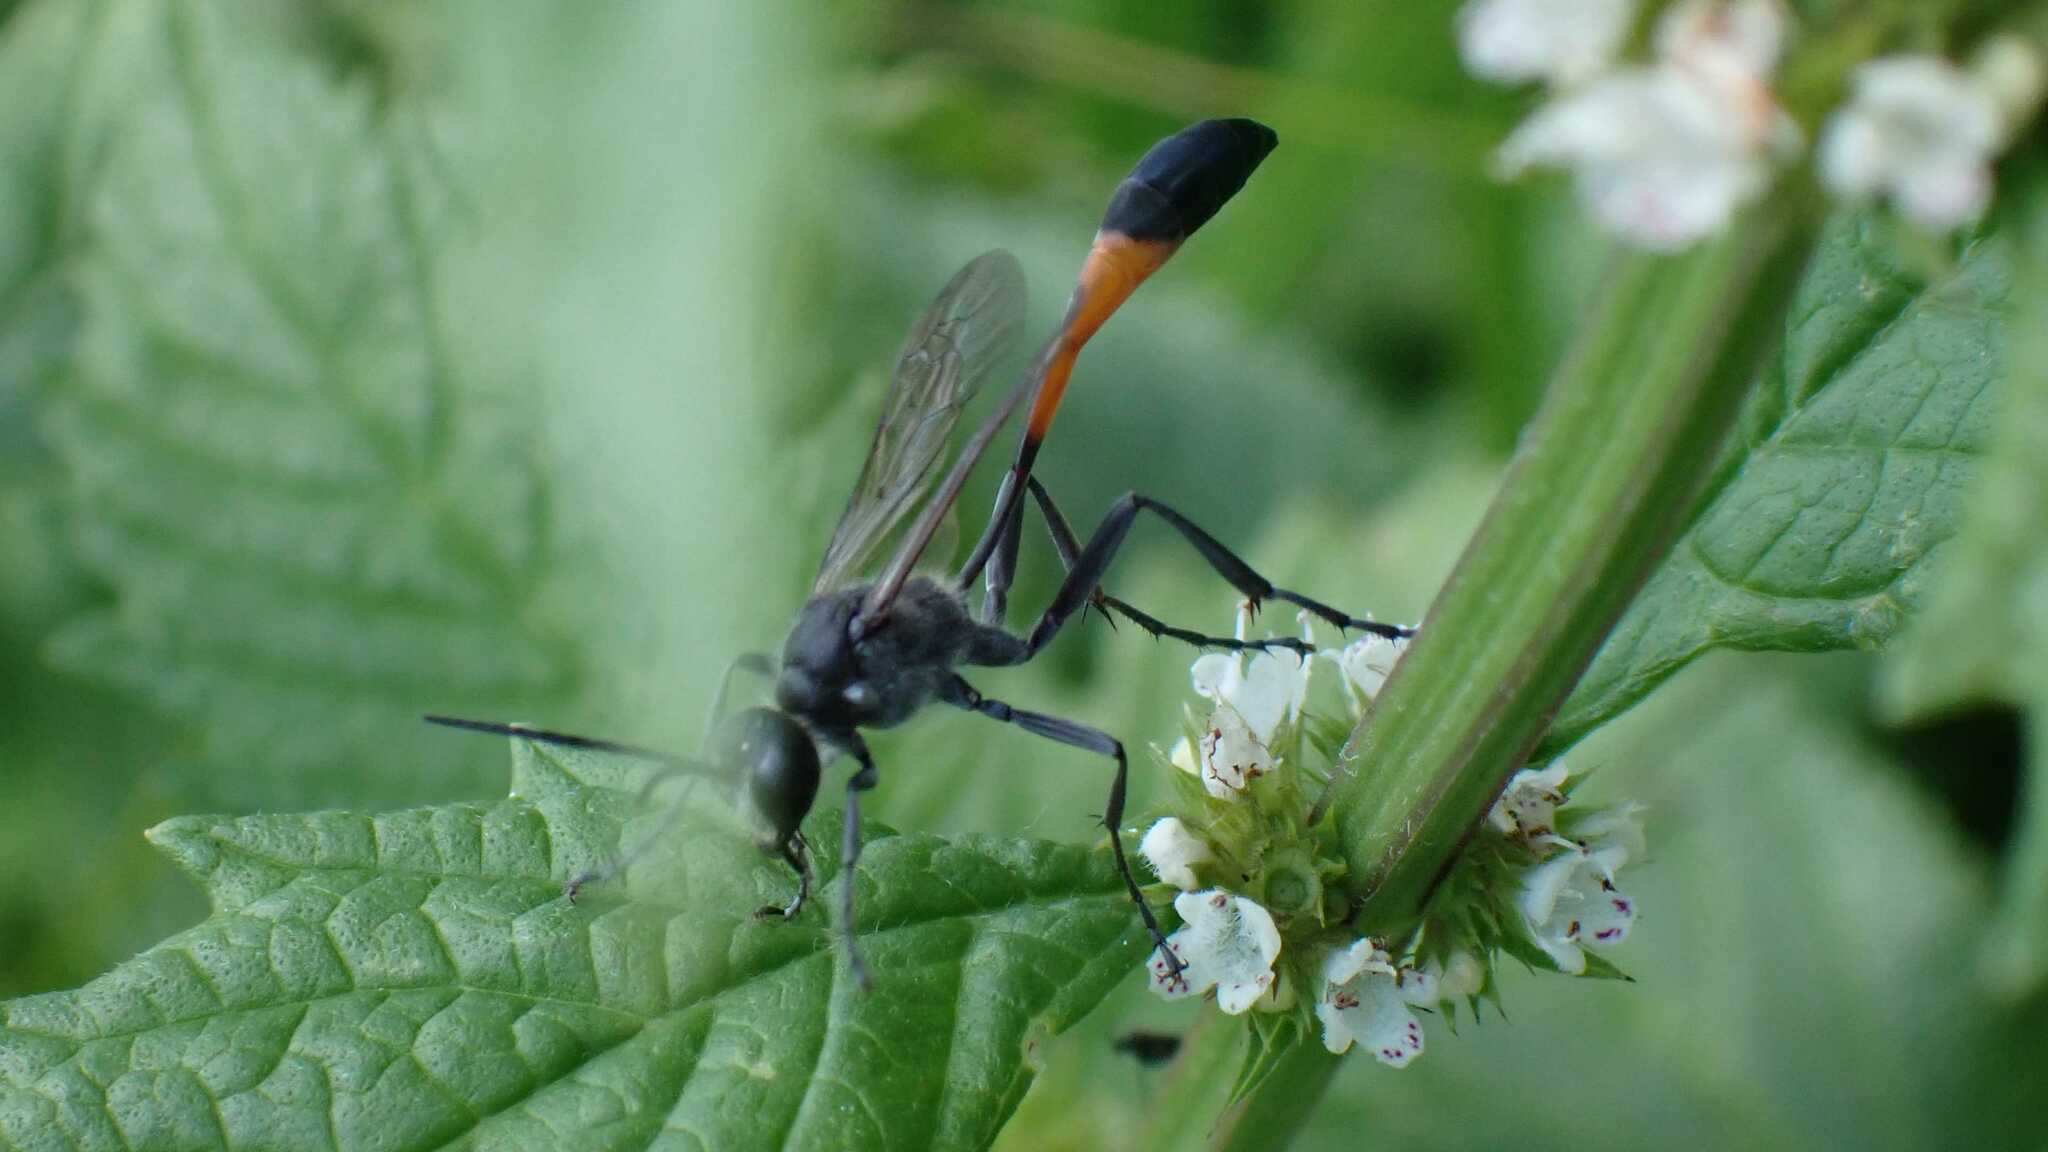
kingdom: Animalia
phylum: Arthropoda
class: Insecta
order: Hymenoptera
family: Sphecidae
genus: Ammophila
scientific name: Ammophila sabulosa
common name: Red banded sand wasp
